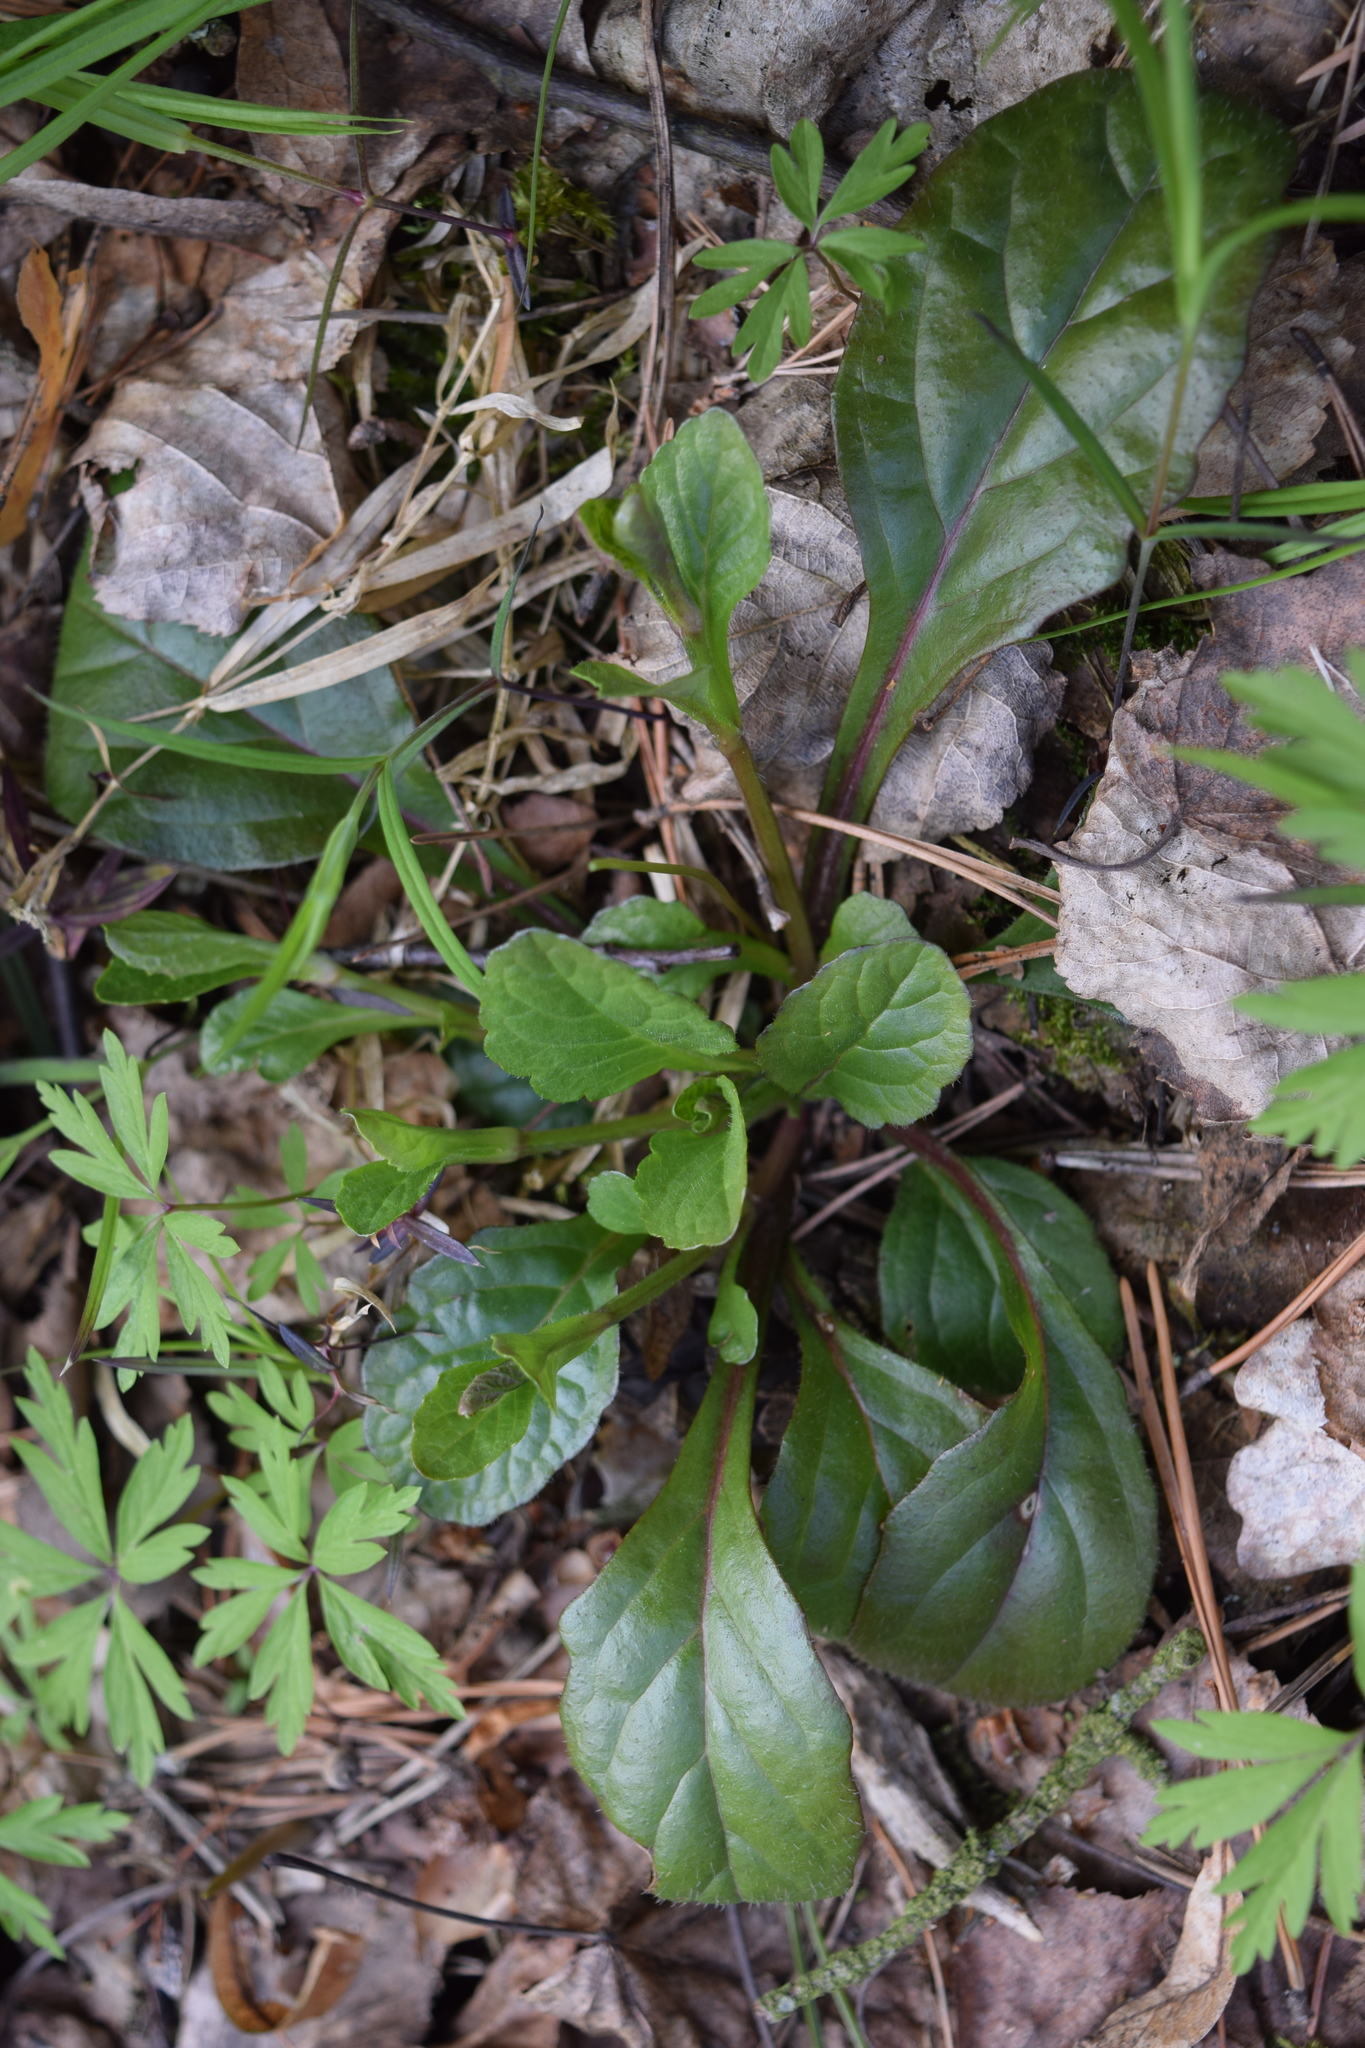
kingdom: Plantae
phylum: Tracheophyta
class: Magnoliopsida
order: Lamiales
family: Lamiaceae
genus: Ajuga
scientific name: Ajuga reptans
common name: Bugle
